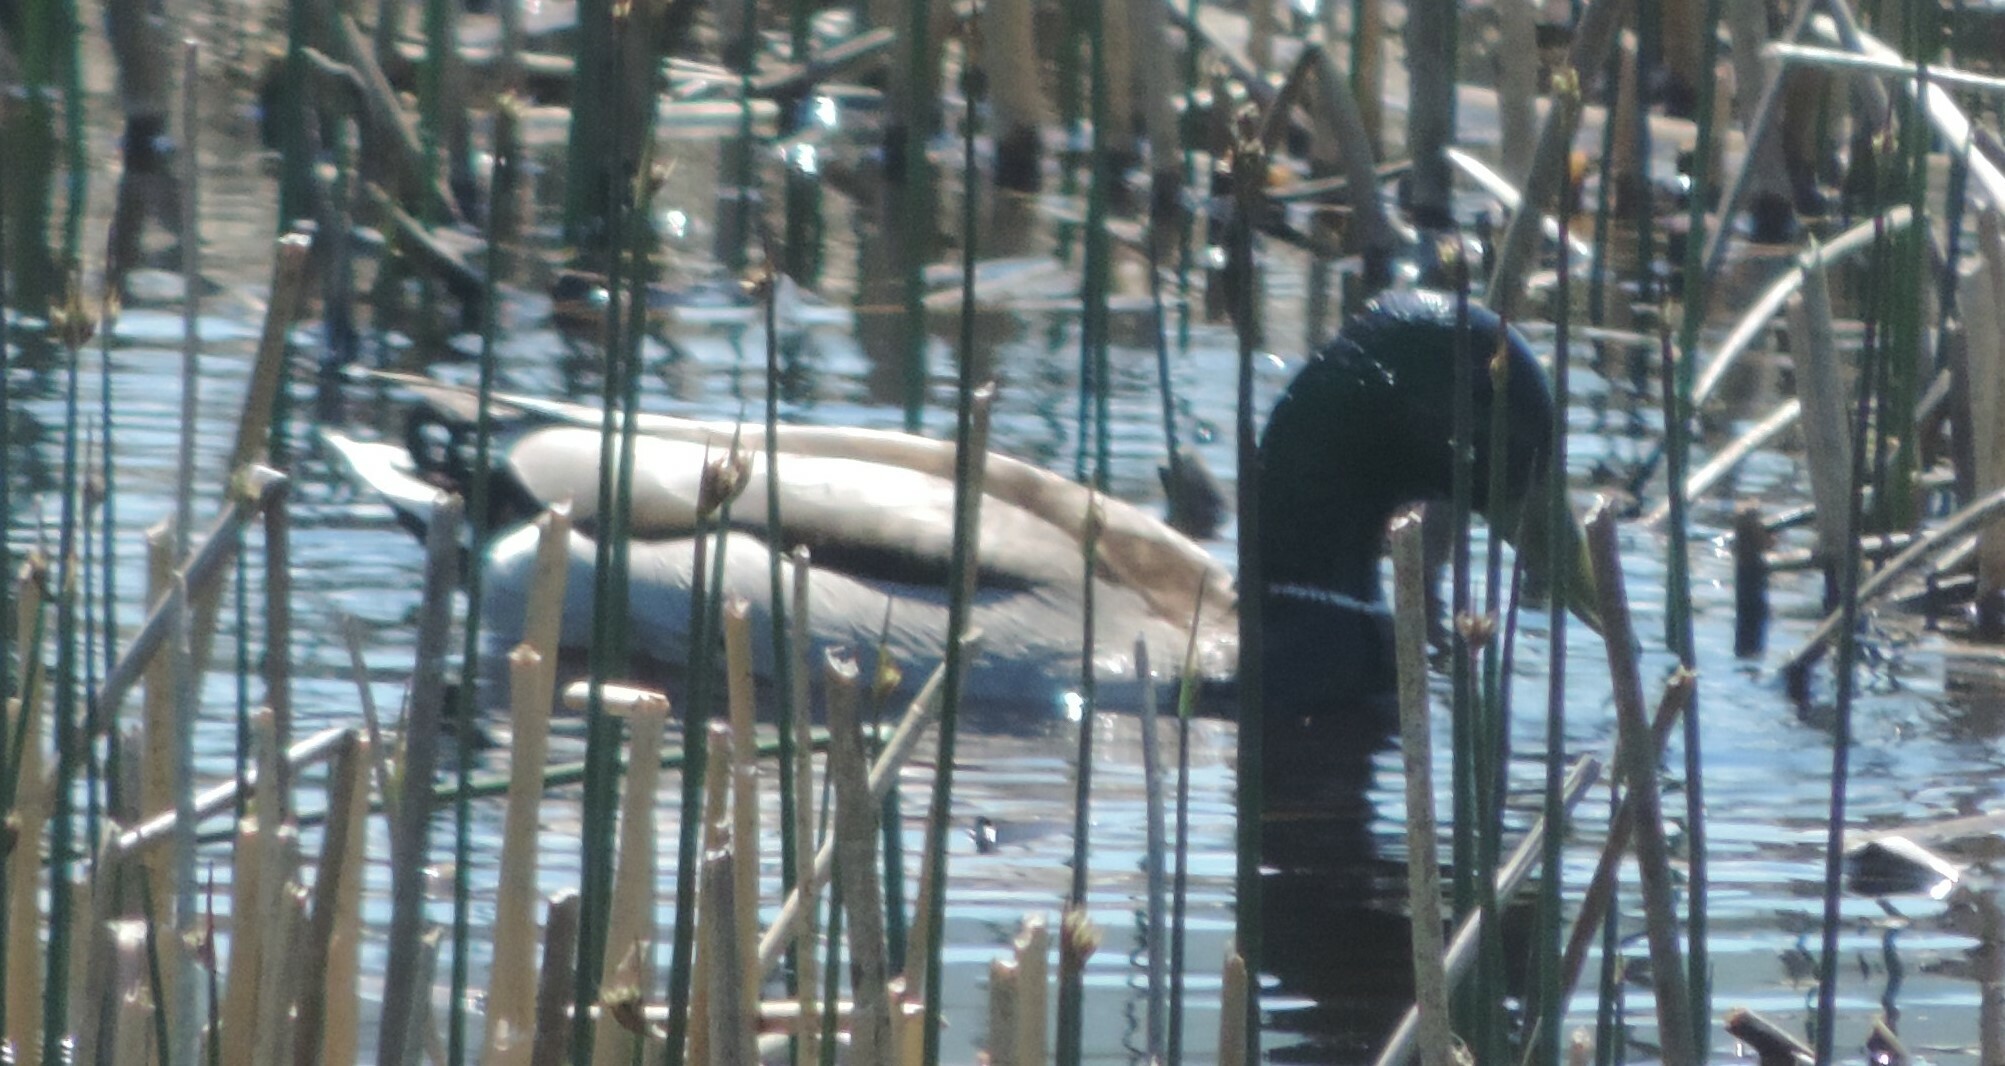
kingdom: Animalia
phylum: Chordata
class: Aves
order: Anseriformes
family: Anatidae
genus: Anas
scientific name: Anas platyrhynchos
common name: Mallard
